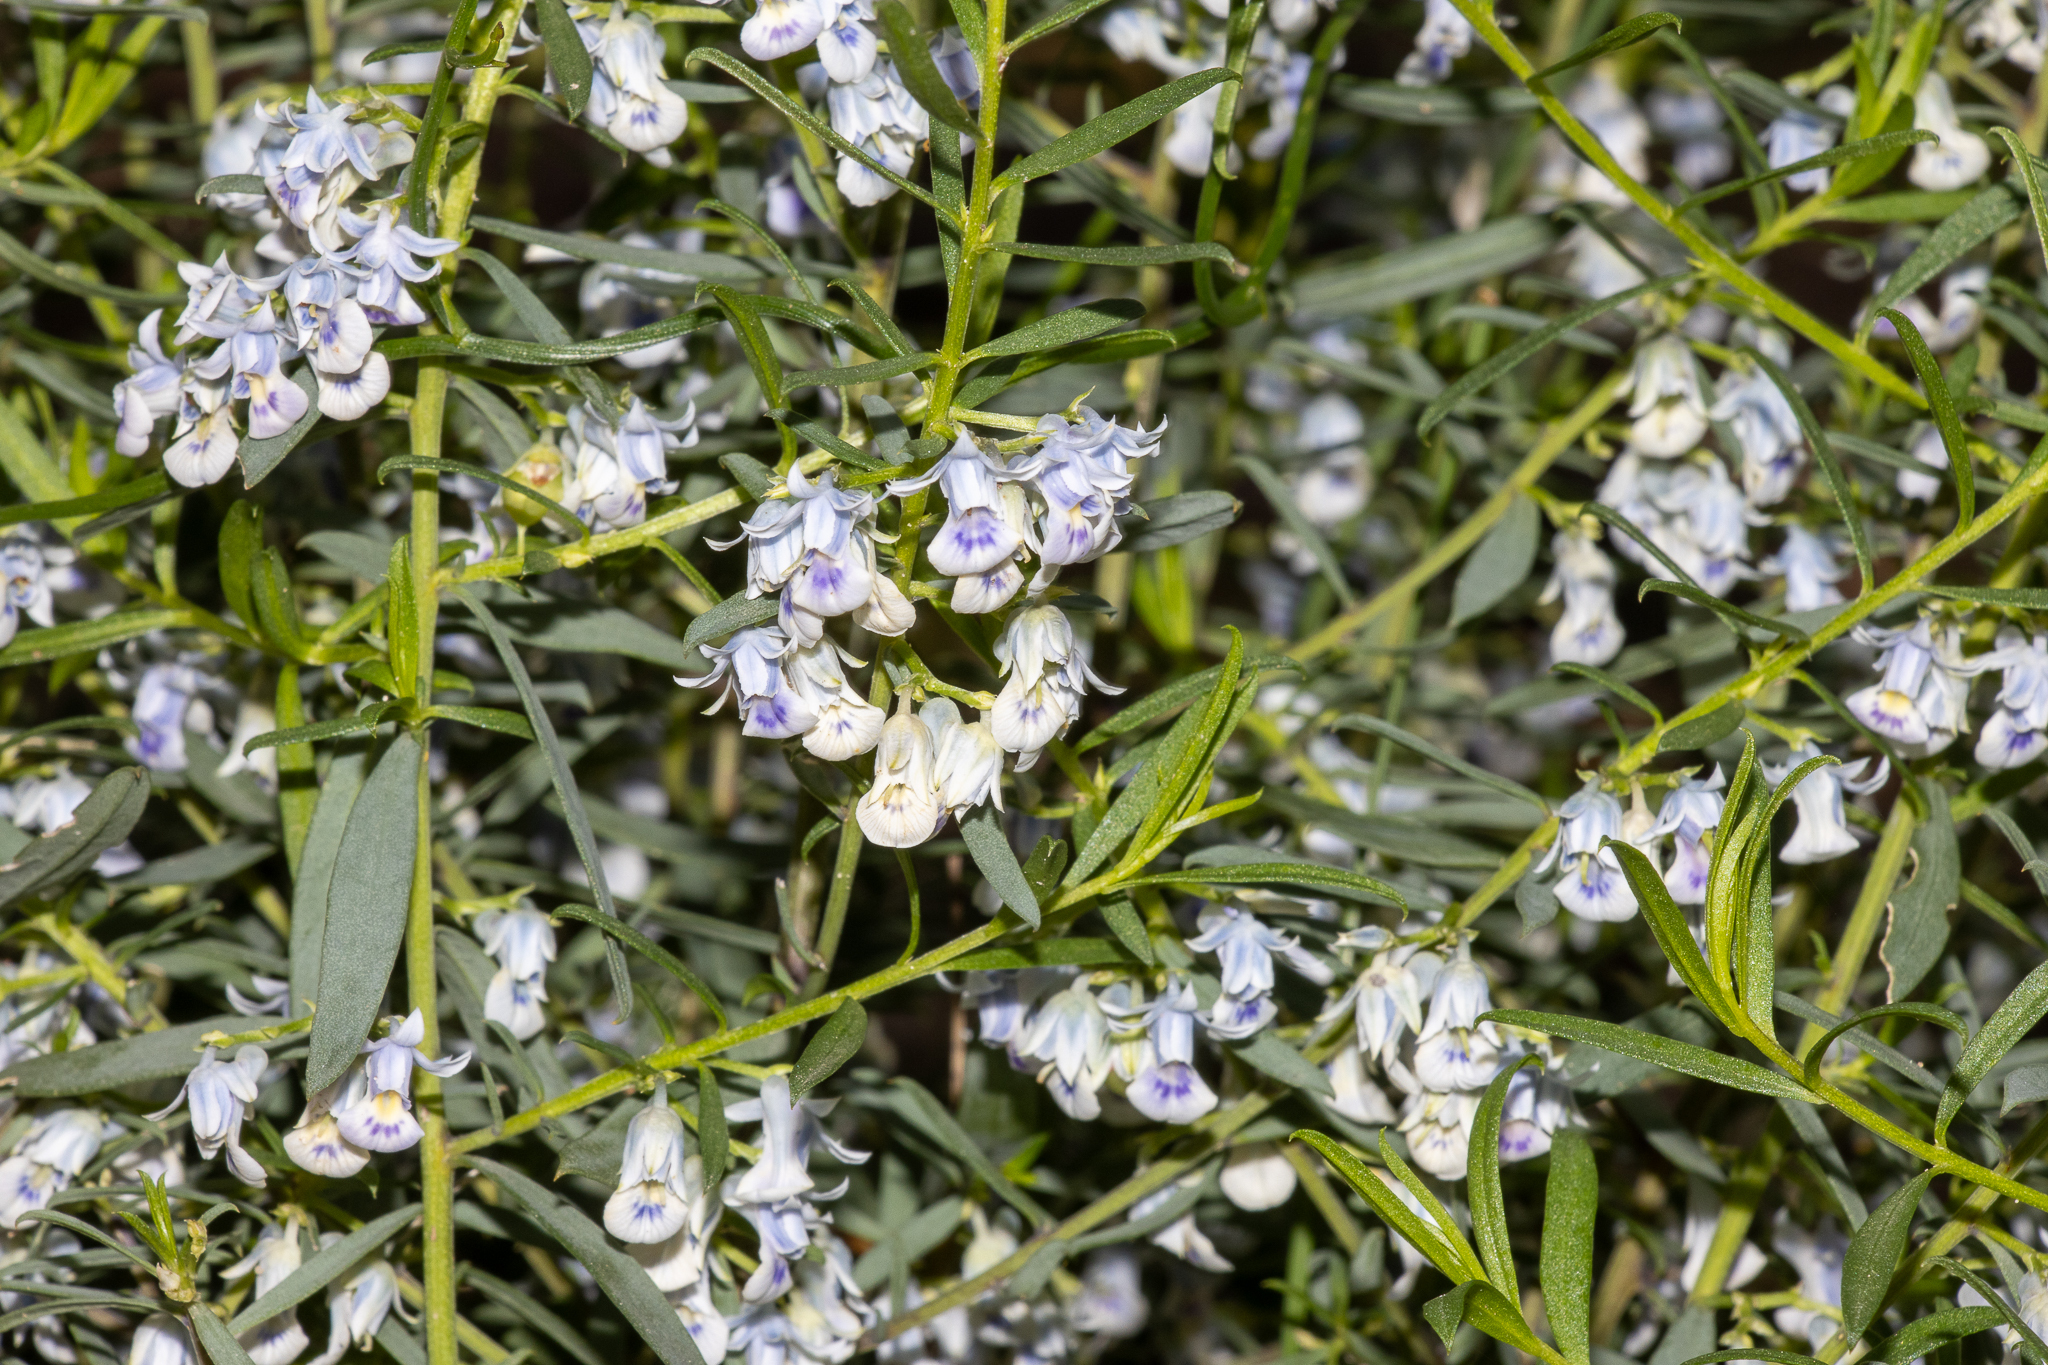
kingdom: Plantae
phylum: Tracheophyta
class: Magnoliopsida
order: Malpighiales
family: Violaceae
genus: Pigea
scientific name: Pigea floribunda
